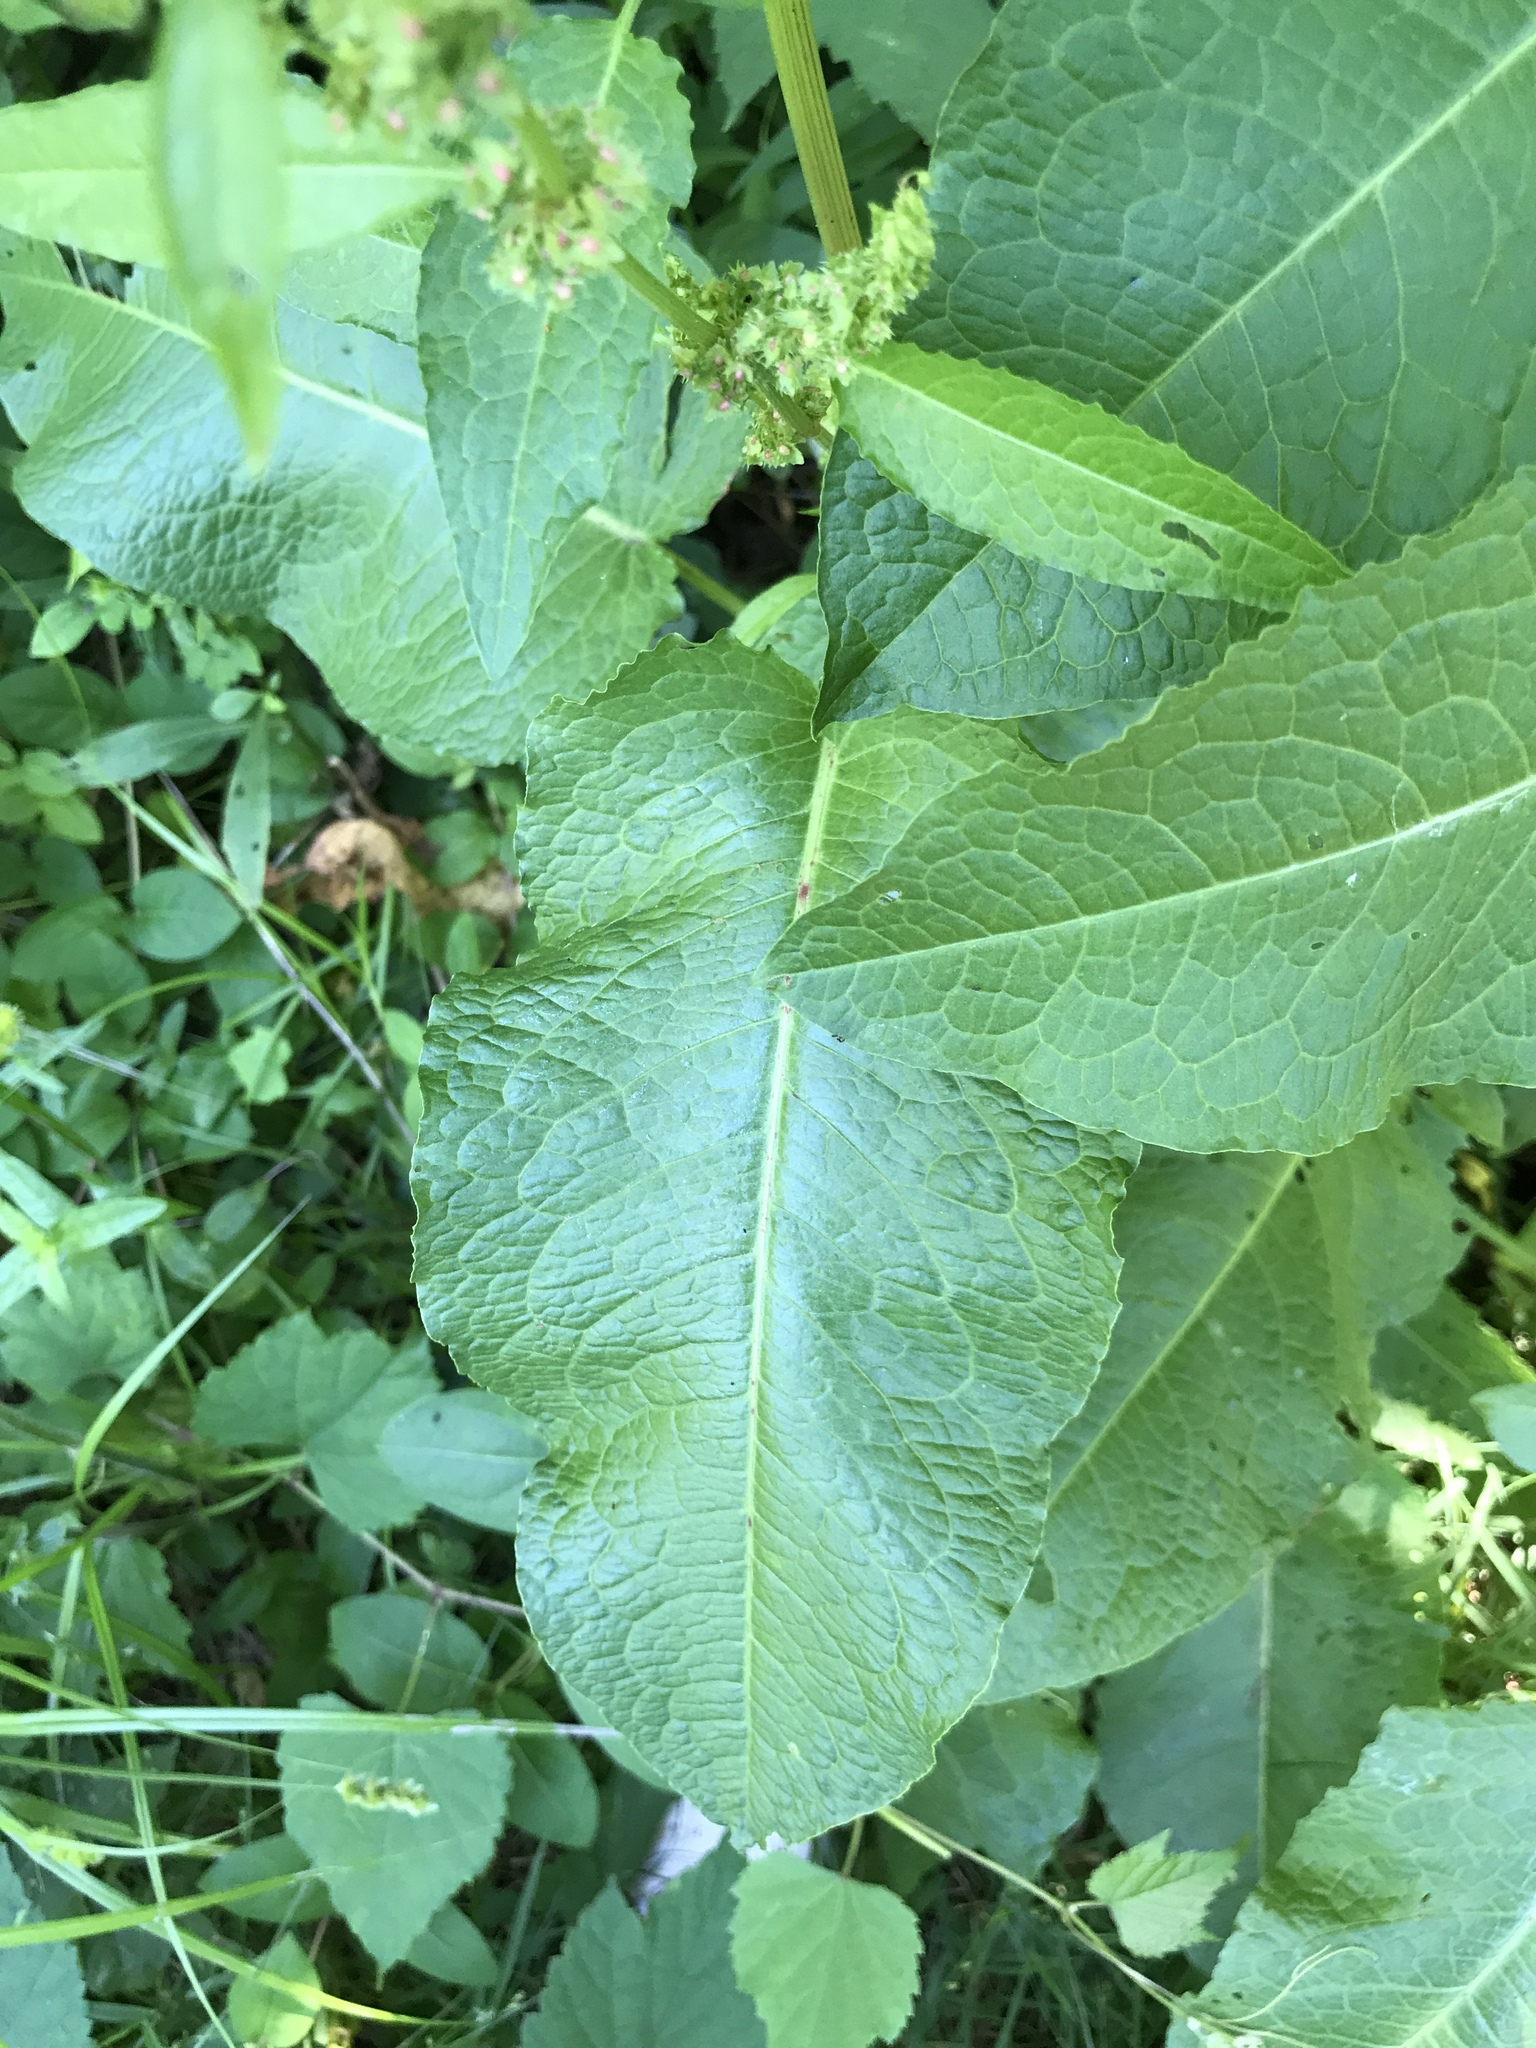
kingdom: Plantae
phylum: Tracheophyta
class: Magnoliopsida
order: Caryophyllales
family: Polygonaceae
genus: Rumex
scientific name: Rumex obtusifolius
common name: Bitter dock
